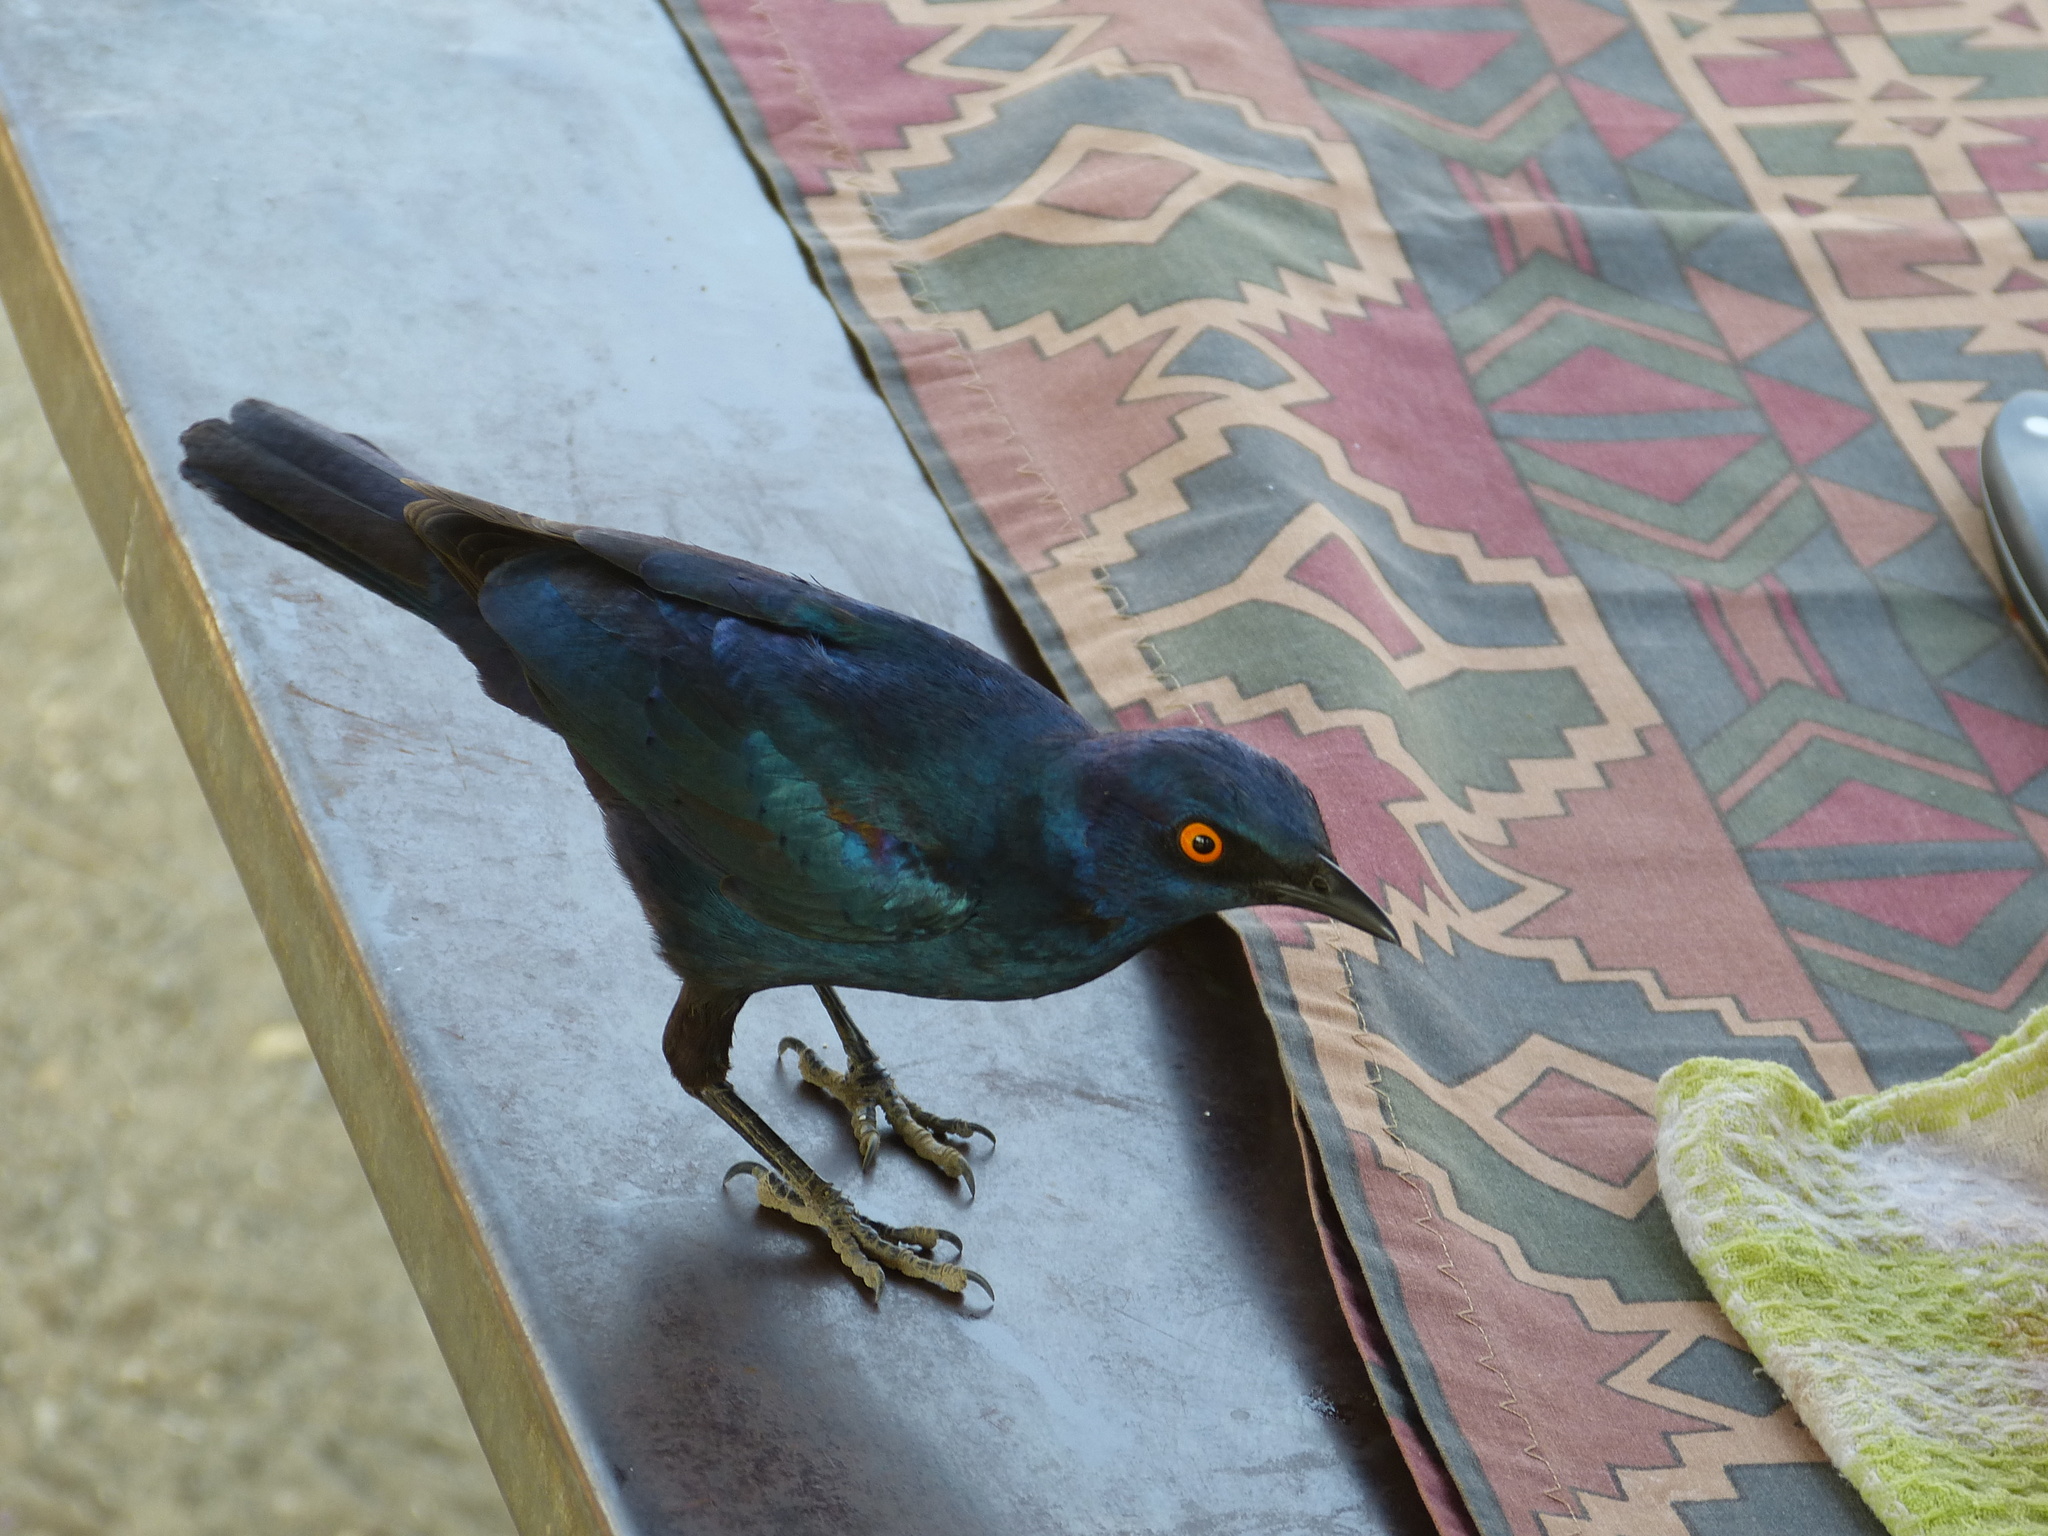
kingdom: Animalia
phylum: Chordata
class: Aves
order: Passeriformes
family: Sturnidae
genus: Lamprotornis
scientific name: Lamprotornis nitens
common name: Cape starling
